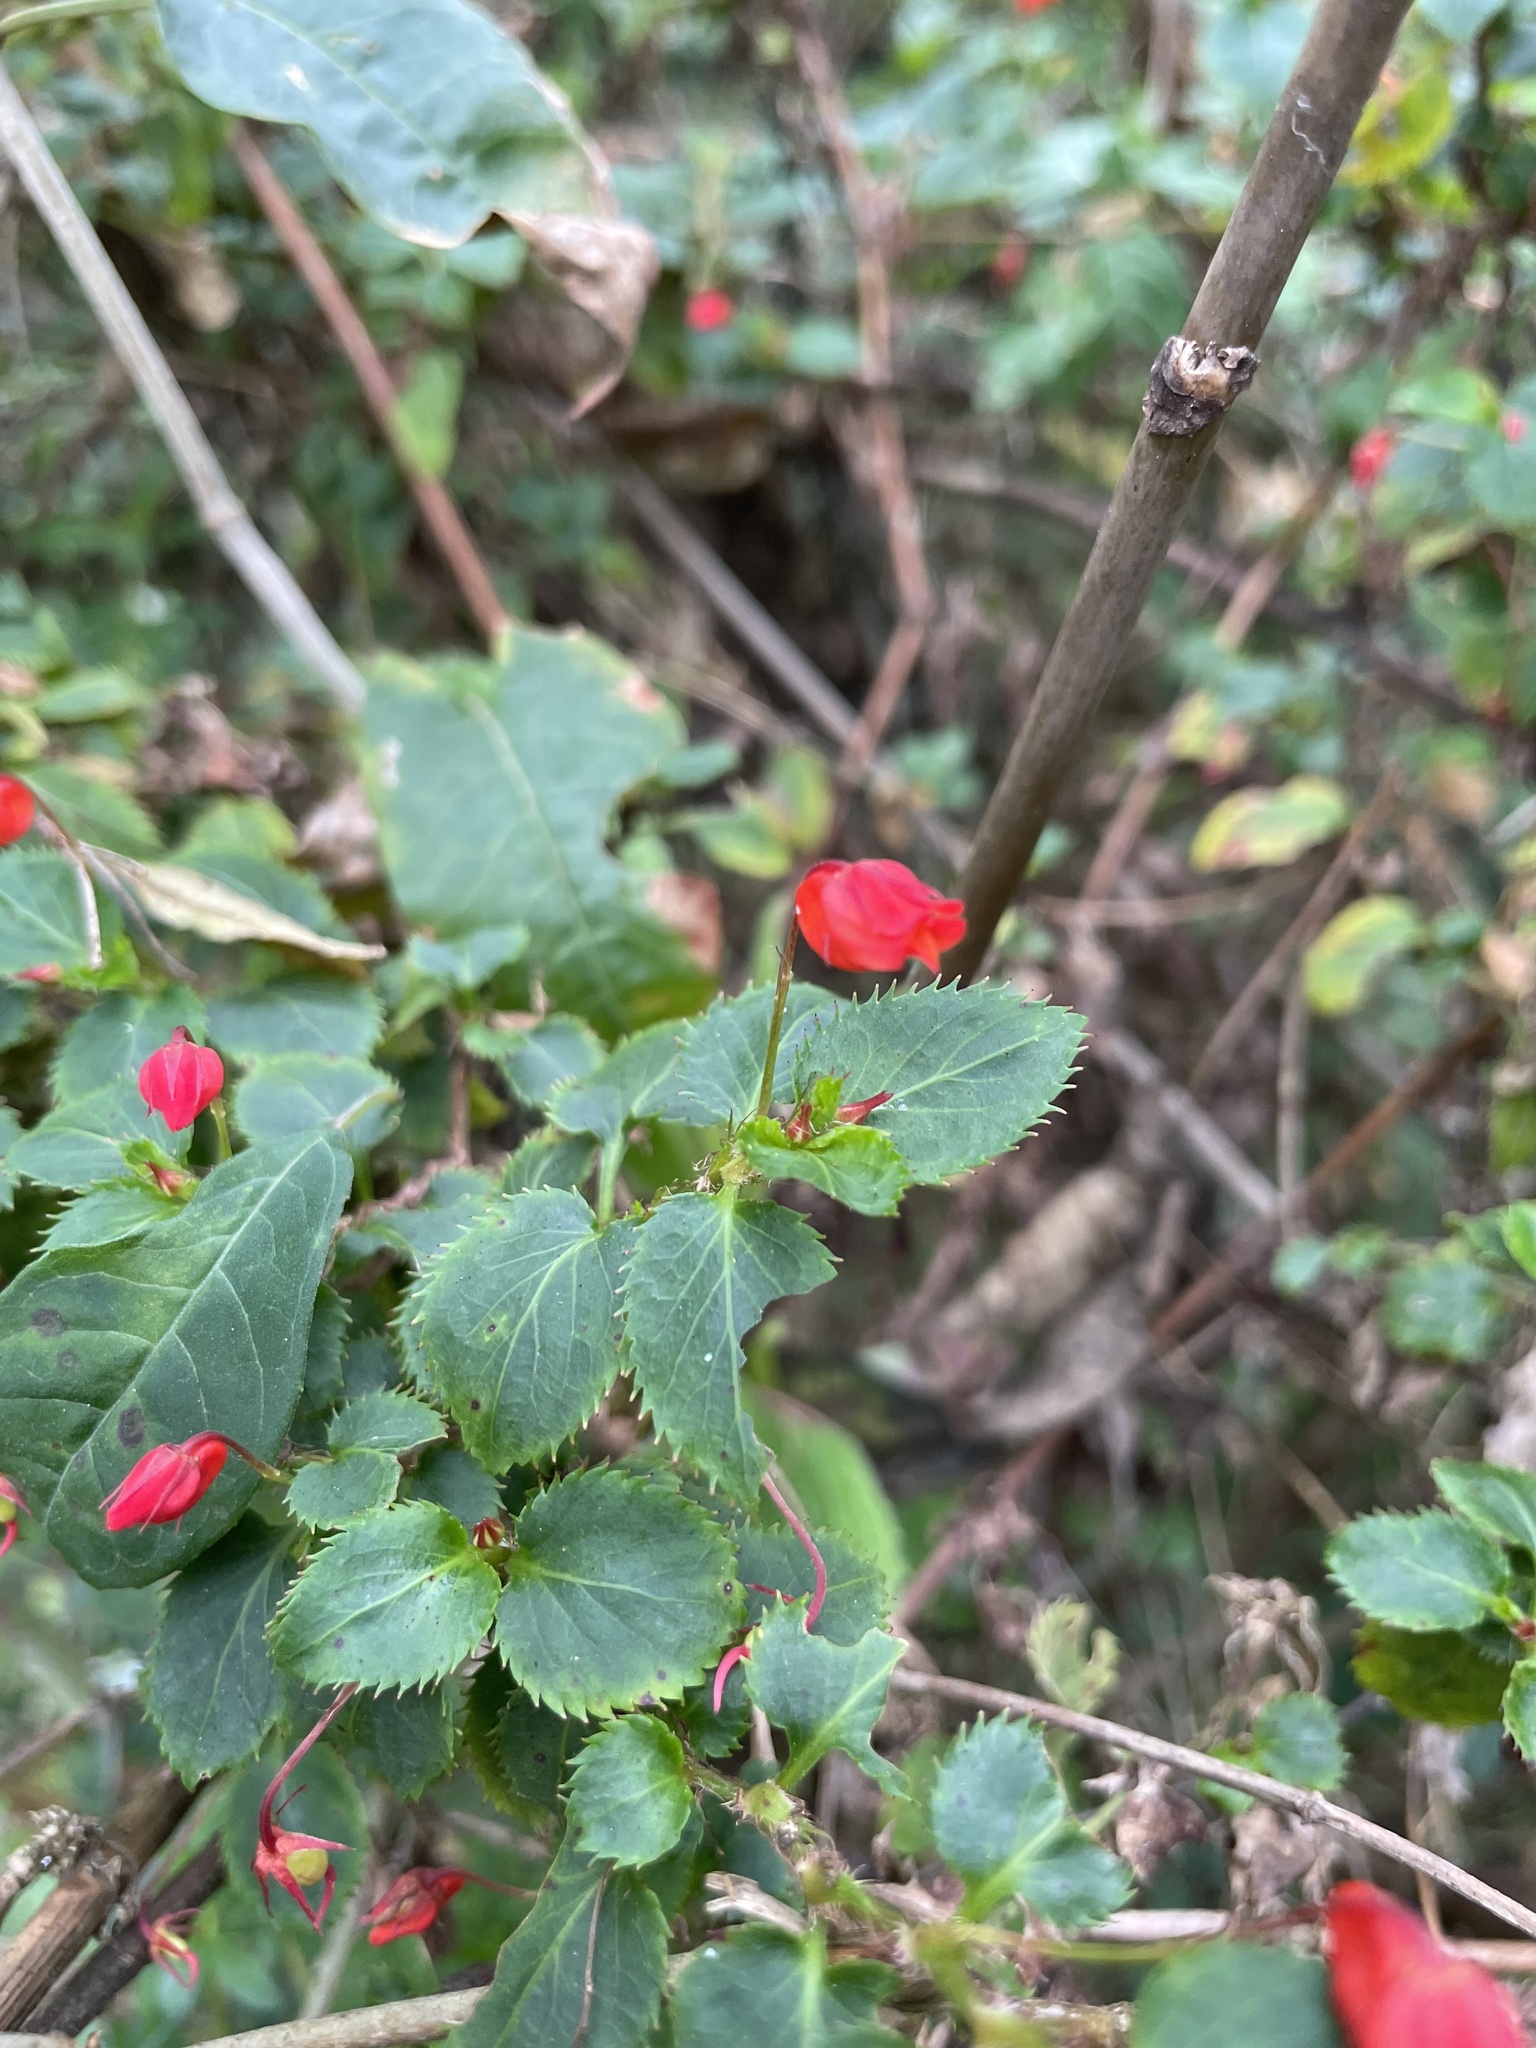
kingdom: Plantae
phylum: Tracheophyta
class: Magnoliopsida
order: Malpighiales
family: Violaceae
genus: Viola
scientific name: Viola arguta
